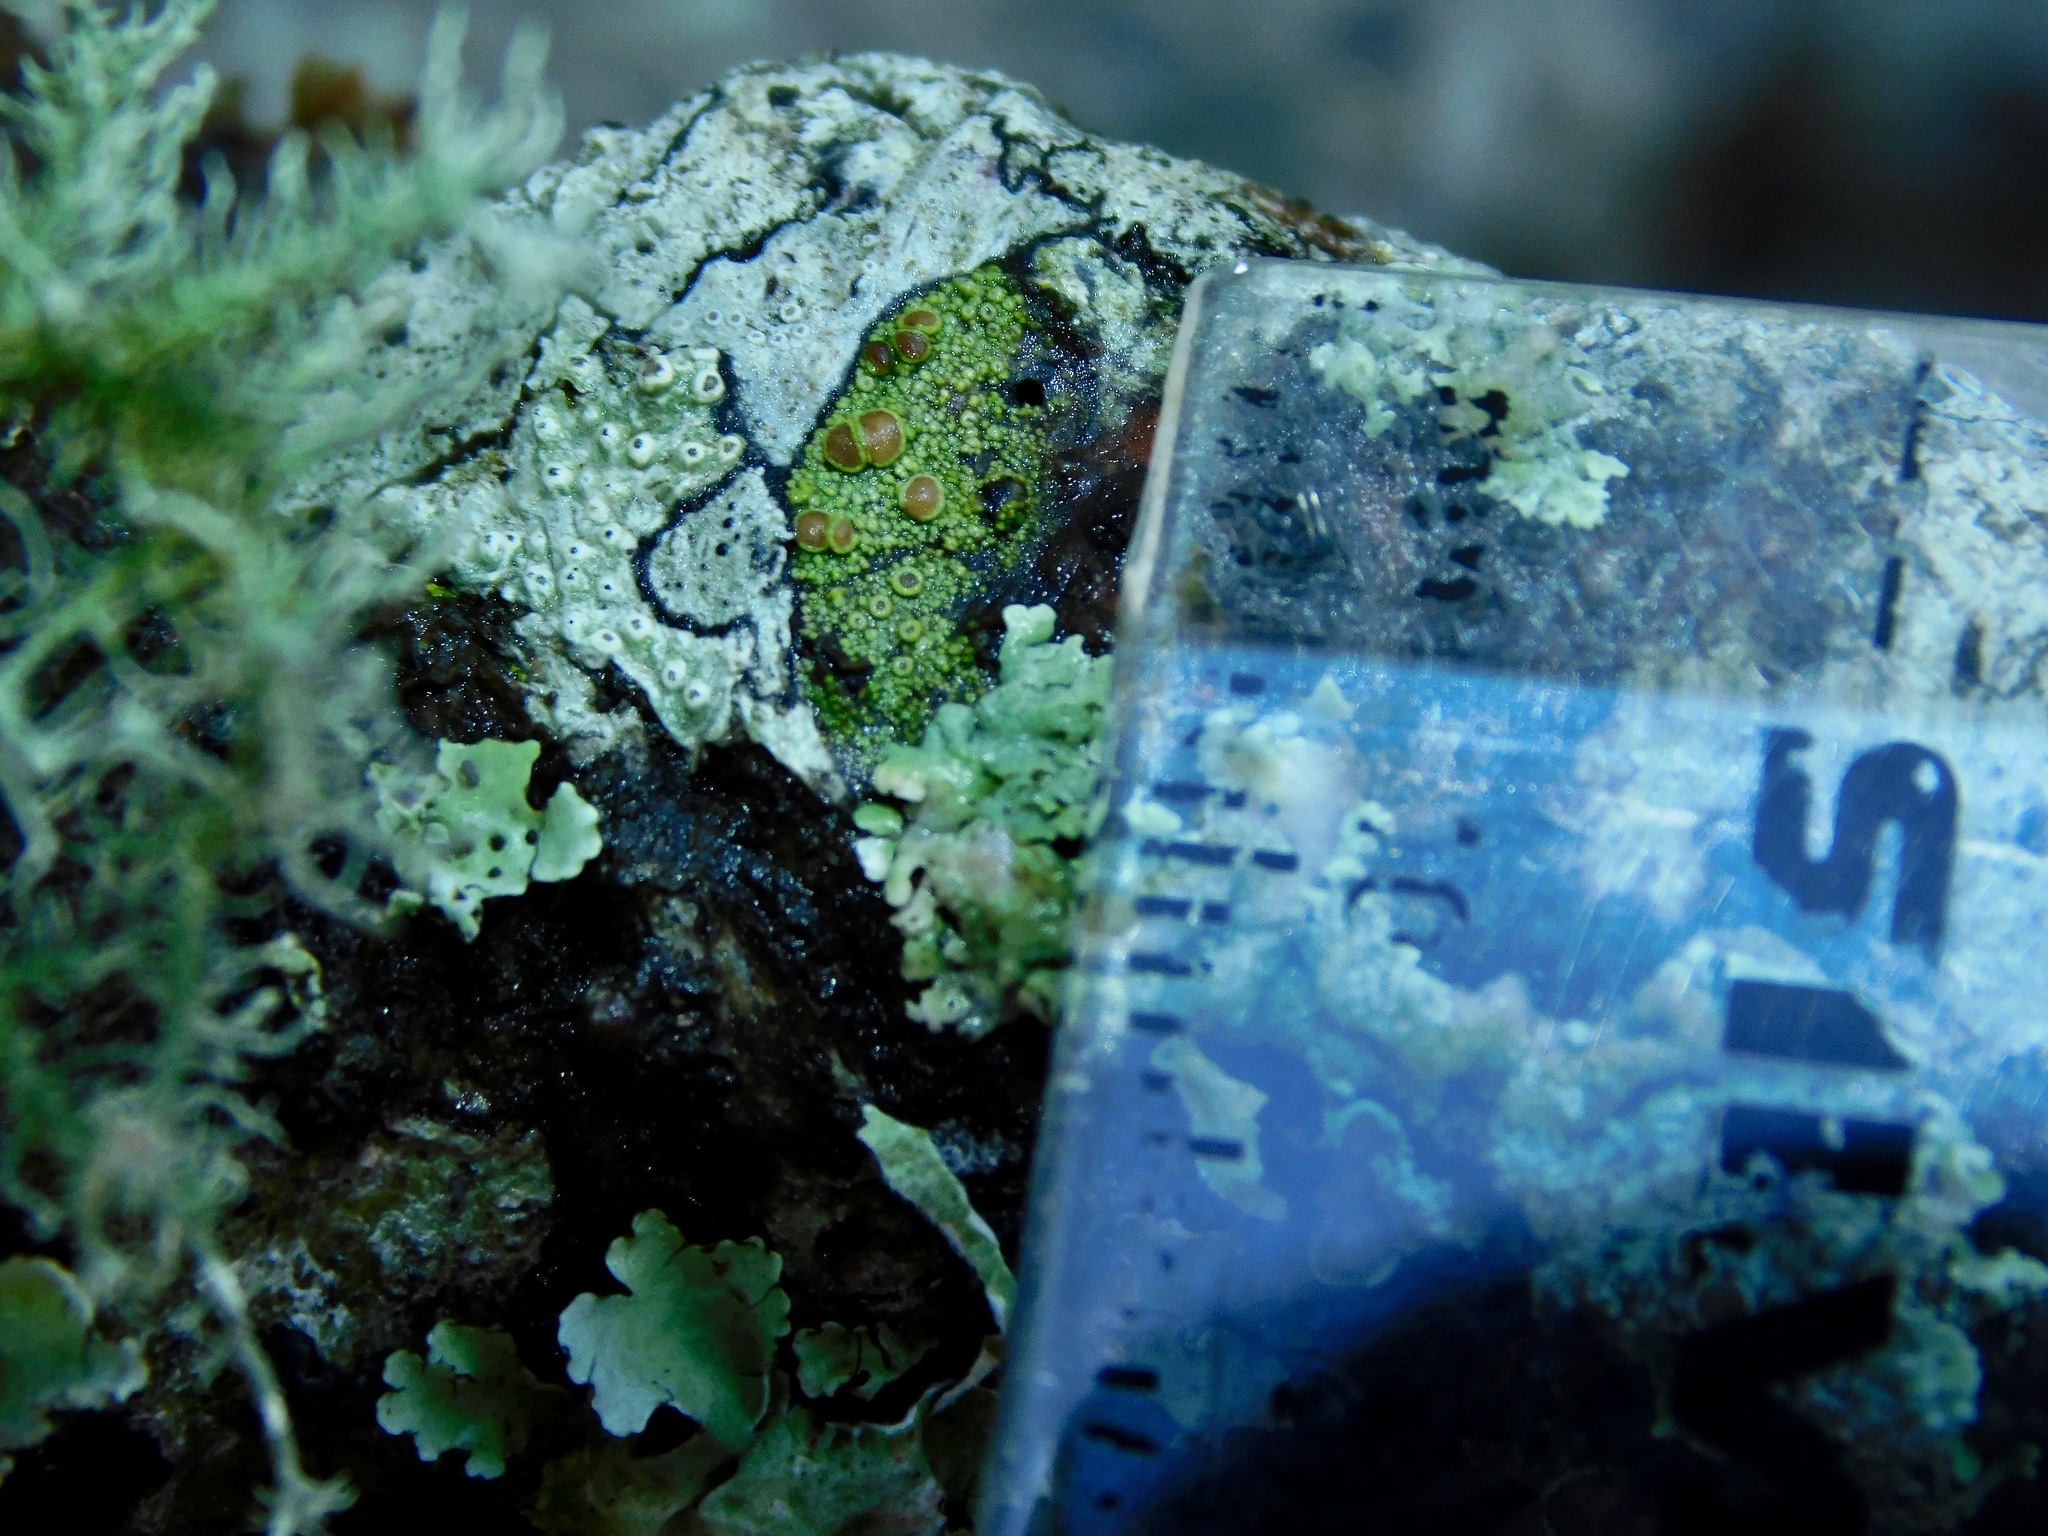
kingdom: Fungi
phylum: Ascomycota
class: Lecanoromycetes
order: Umbilicariales
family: Fuscideaceae
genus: Maronea
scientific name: Maronea polyphaea
